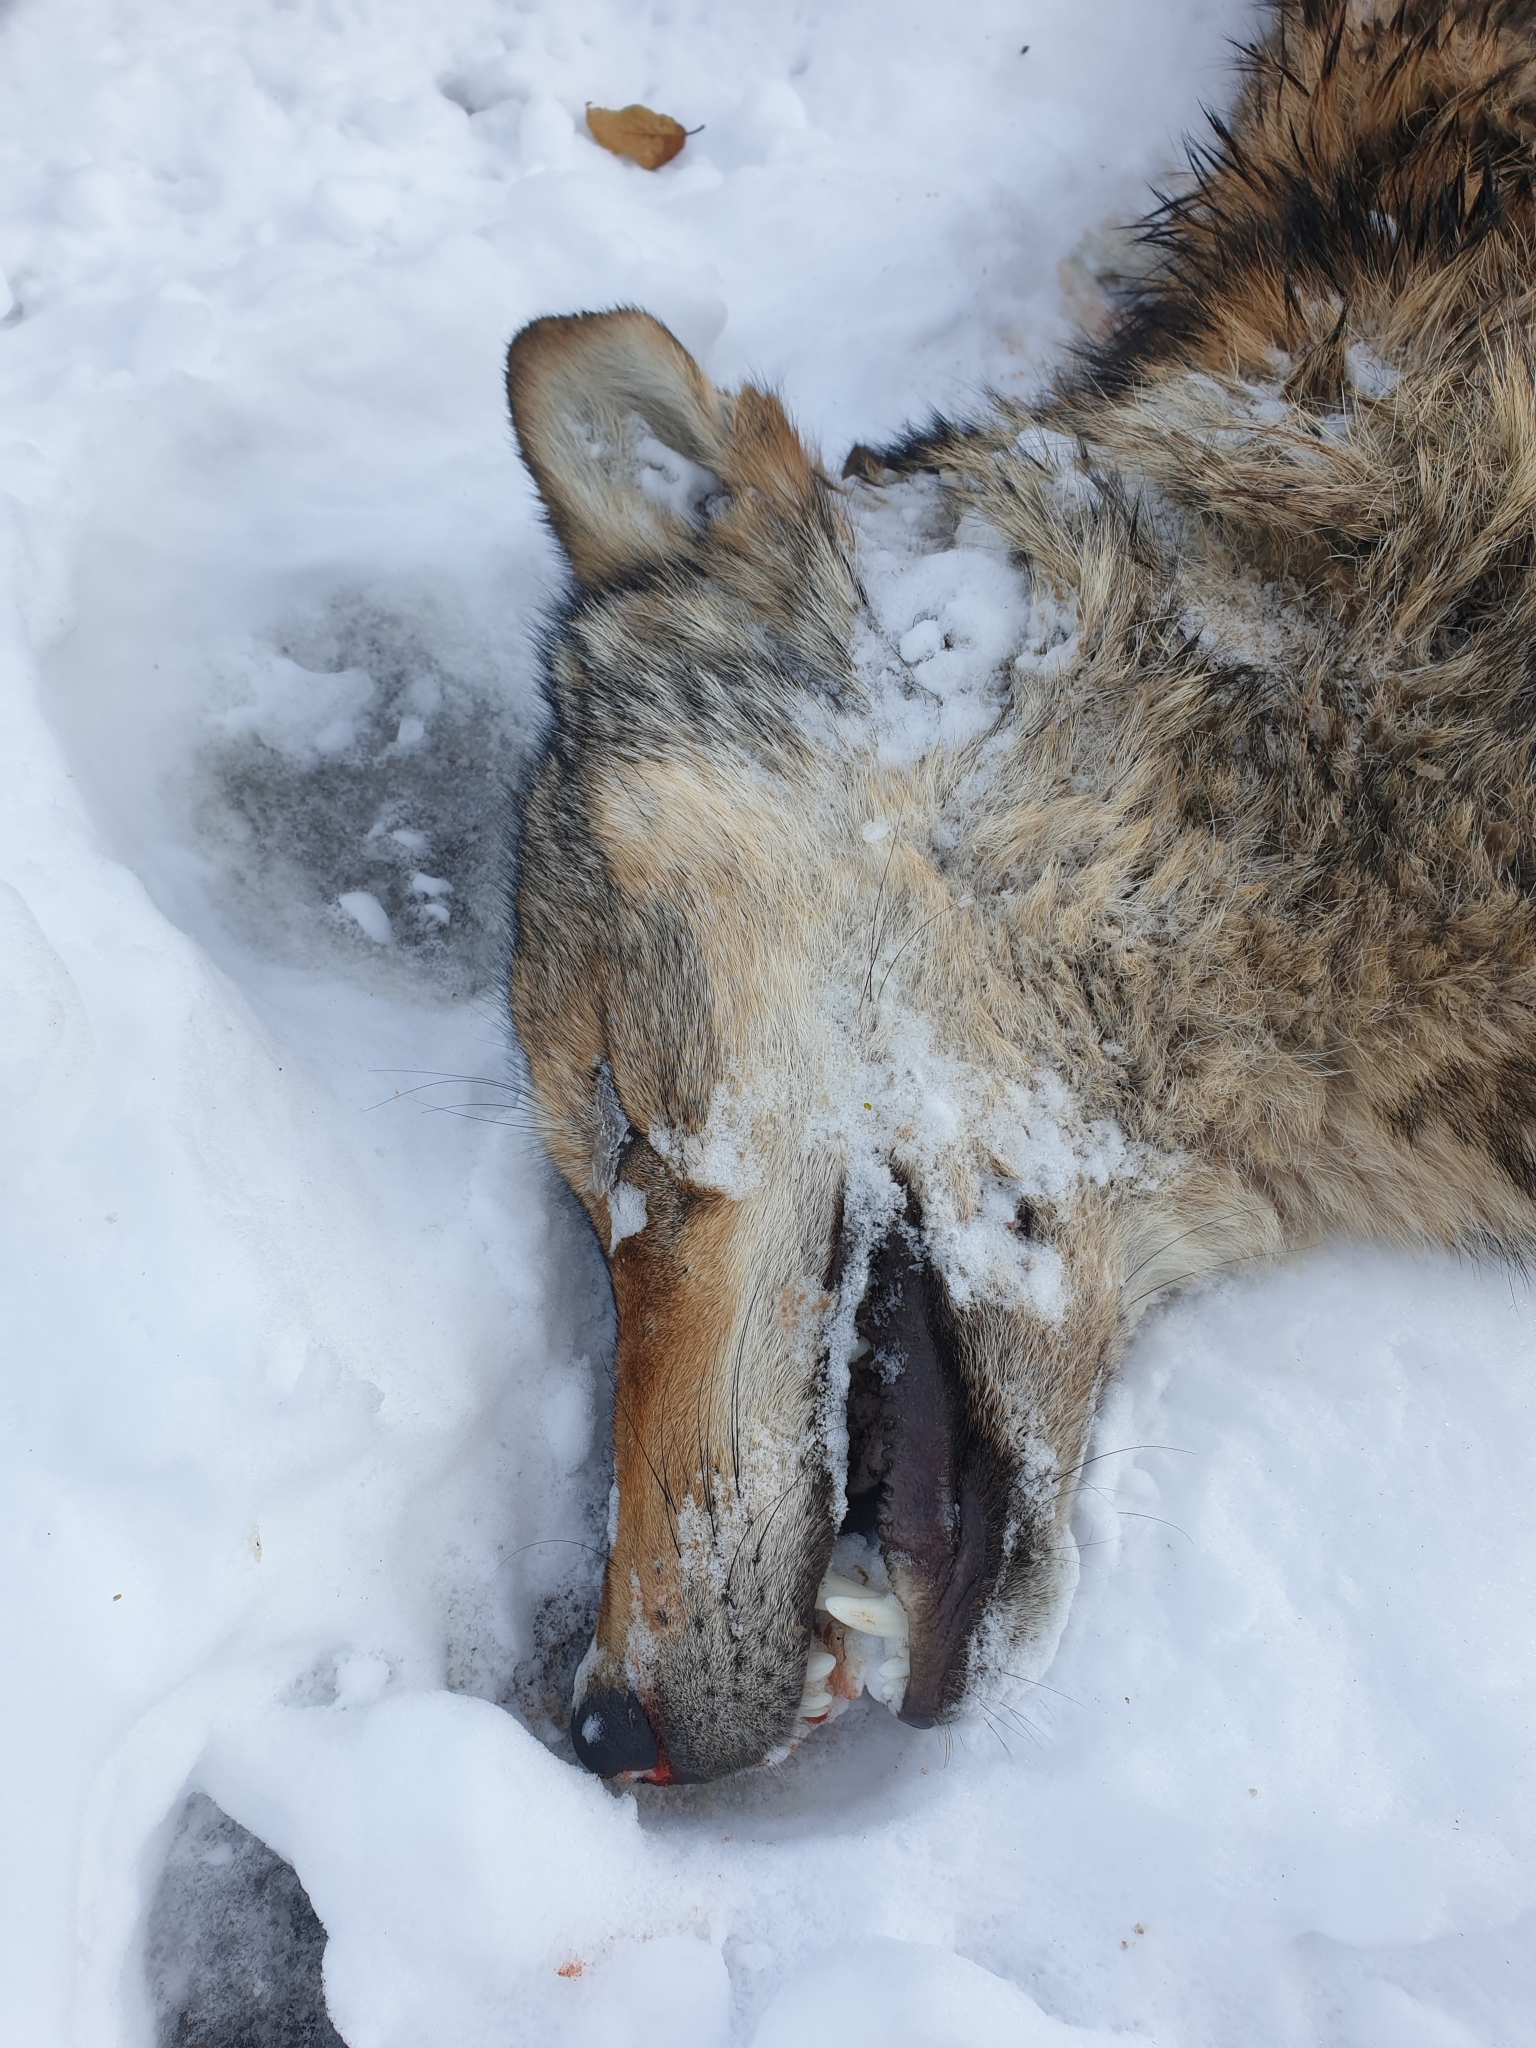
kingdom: Animalia
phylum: Chordata
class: Mammalia
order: Carnivora
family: Canidae
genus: Canis
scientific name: Canis lupus
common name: Gray wolf
